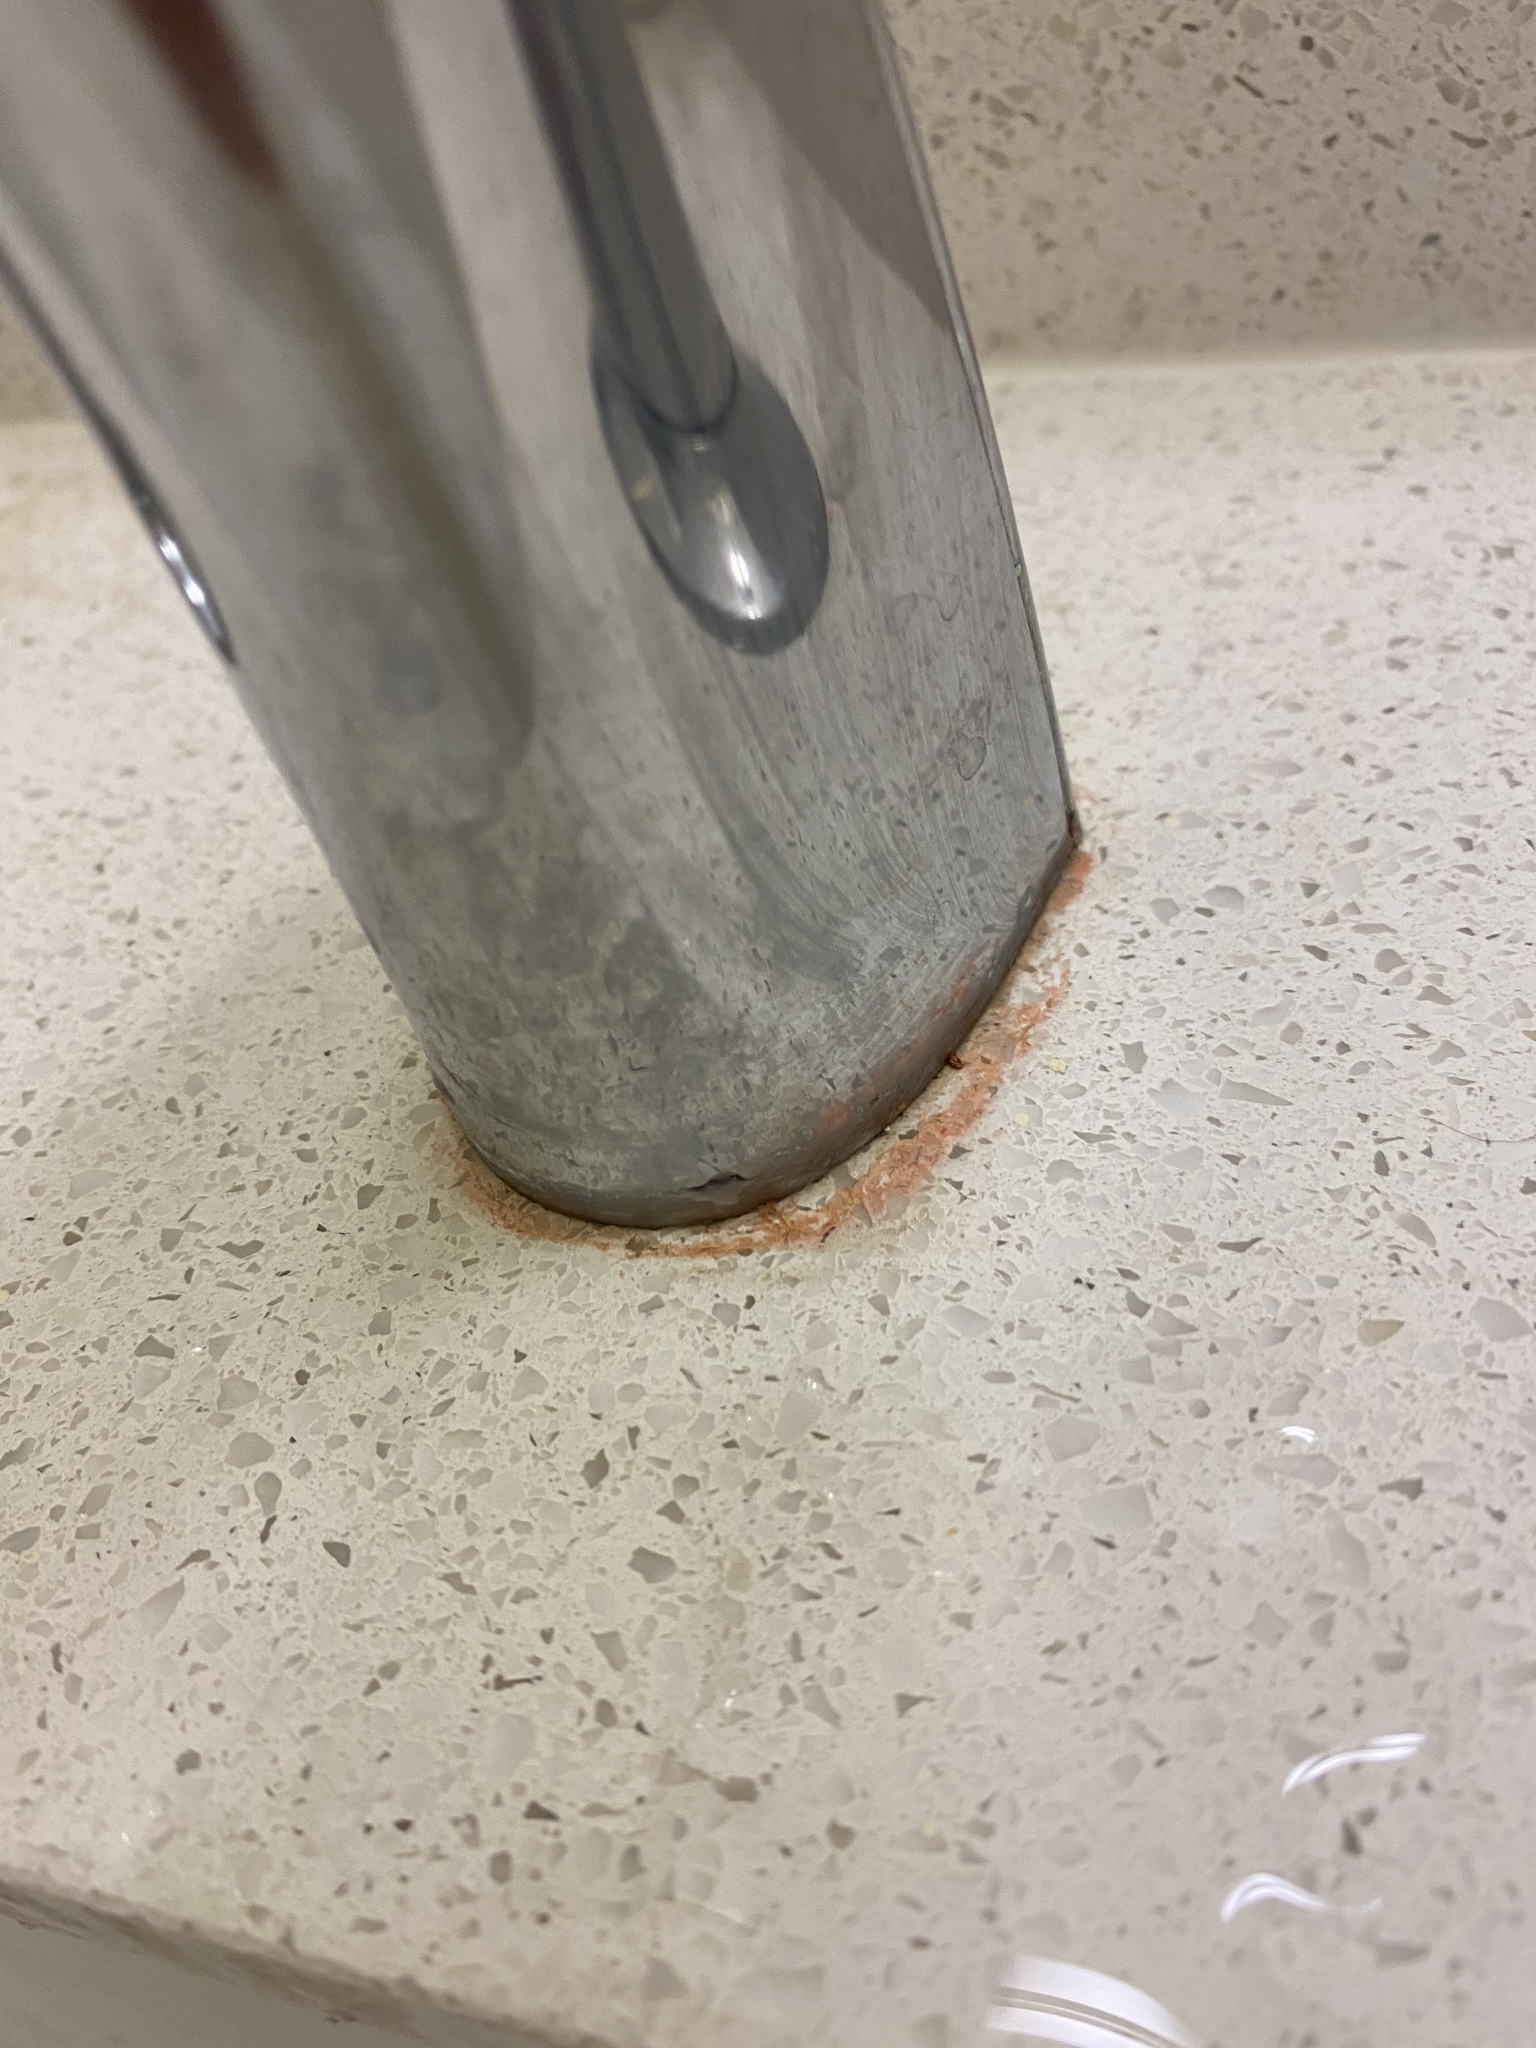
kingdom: Bacteria
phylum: Proteobacteria
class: Gammaproteobacteria
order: Enterobacterales
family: Enterobacteriaceae
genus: Serratia
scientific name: Serratia marcescens
